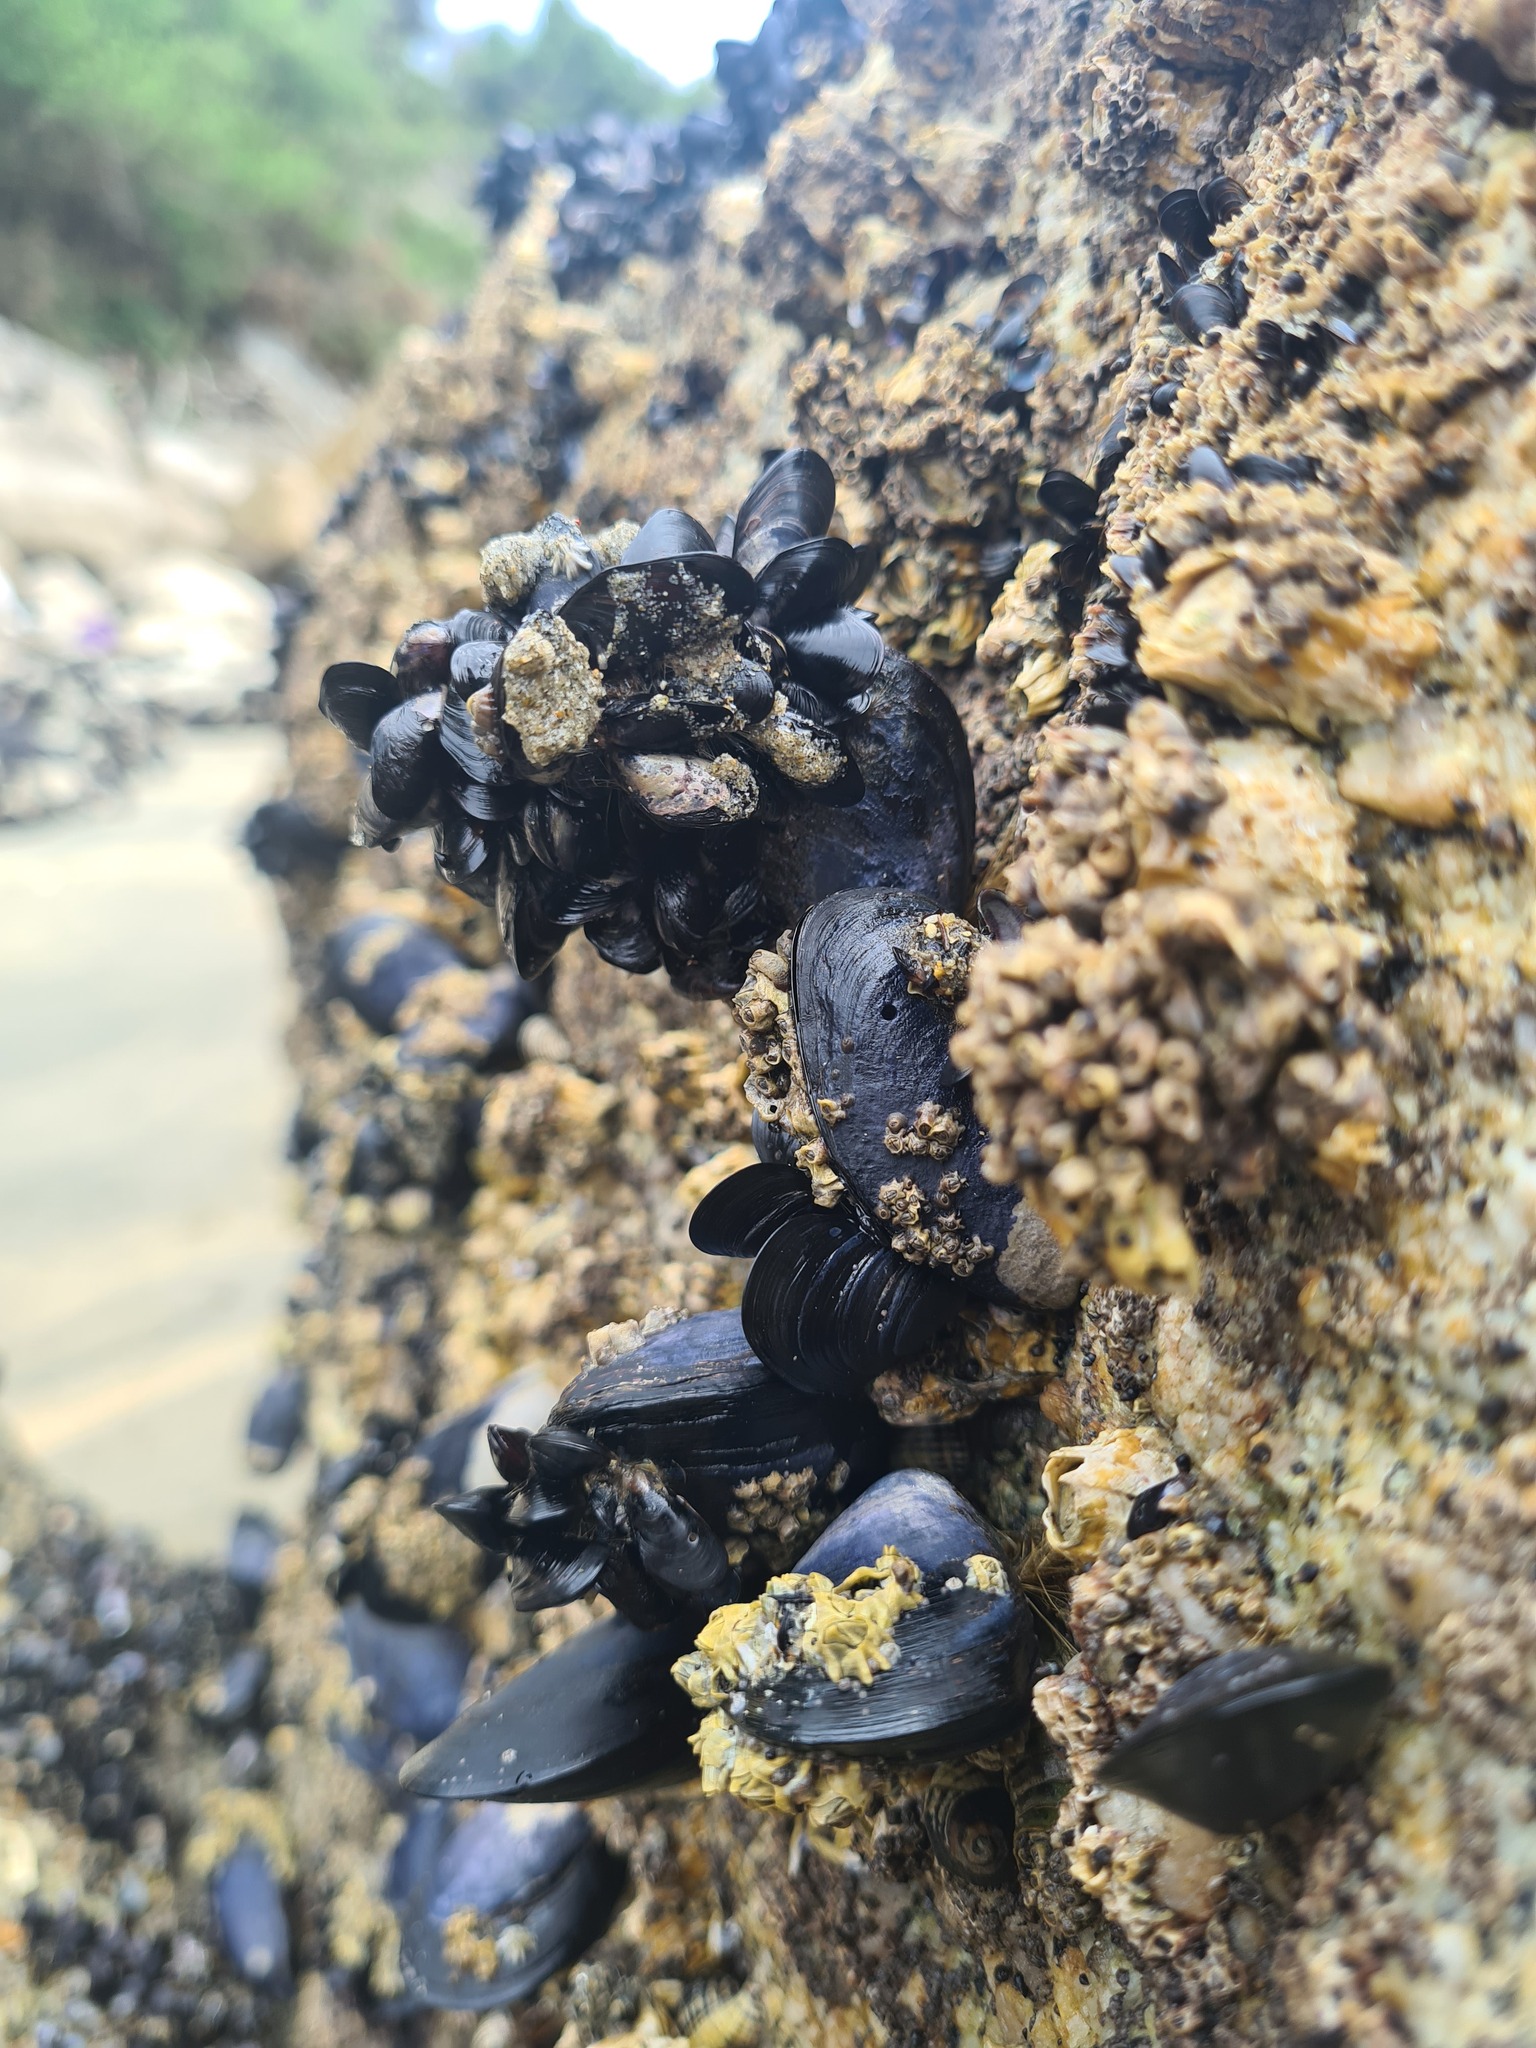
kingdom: Animalia
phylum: Mollusca
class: Bivalvia
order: Mytilida
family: Mytilidae
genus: Mytilus
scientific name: Mytilus planulatus
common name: Australian mussel
